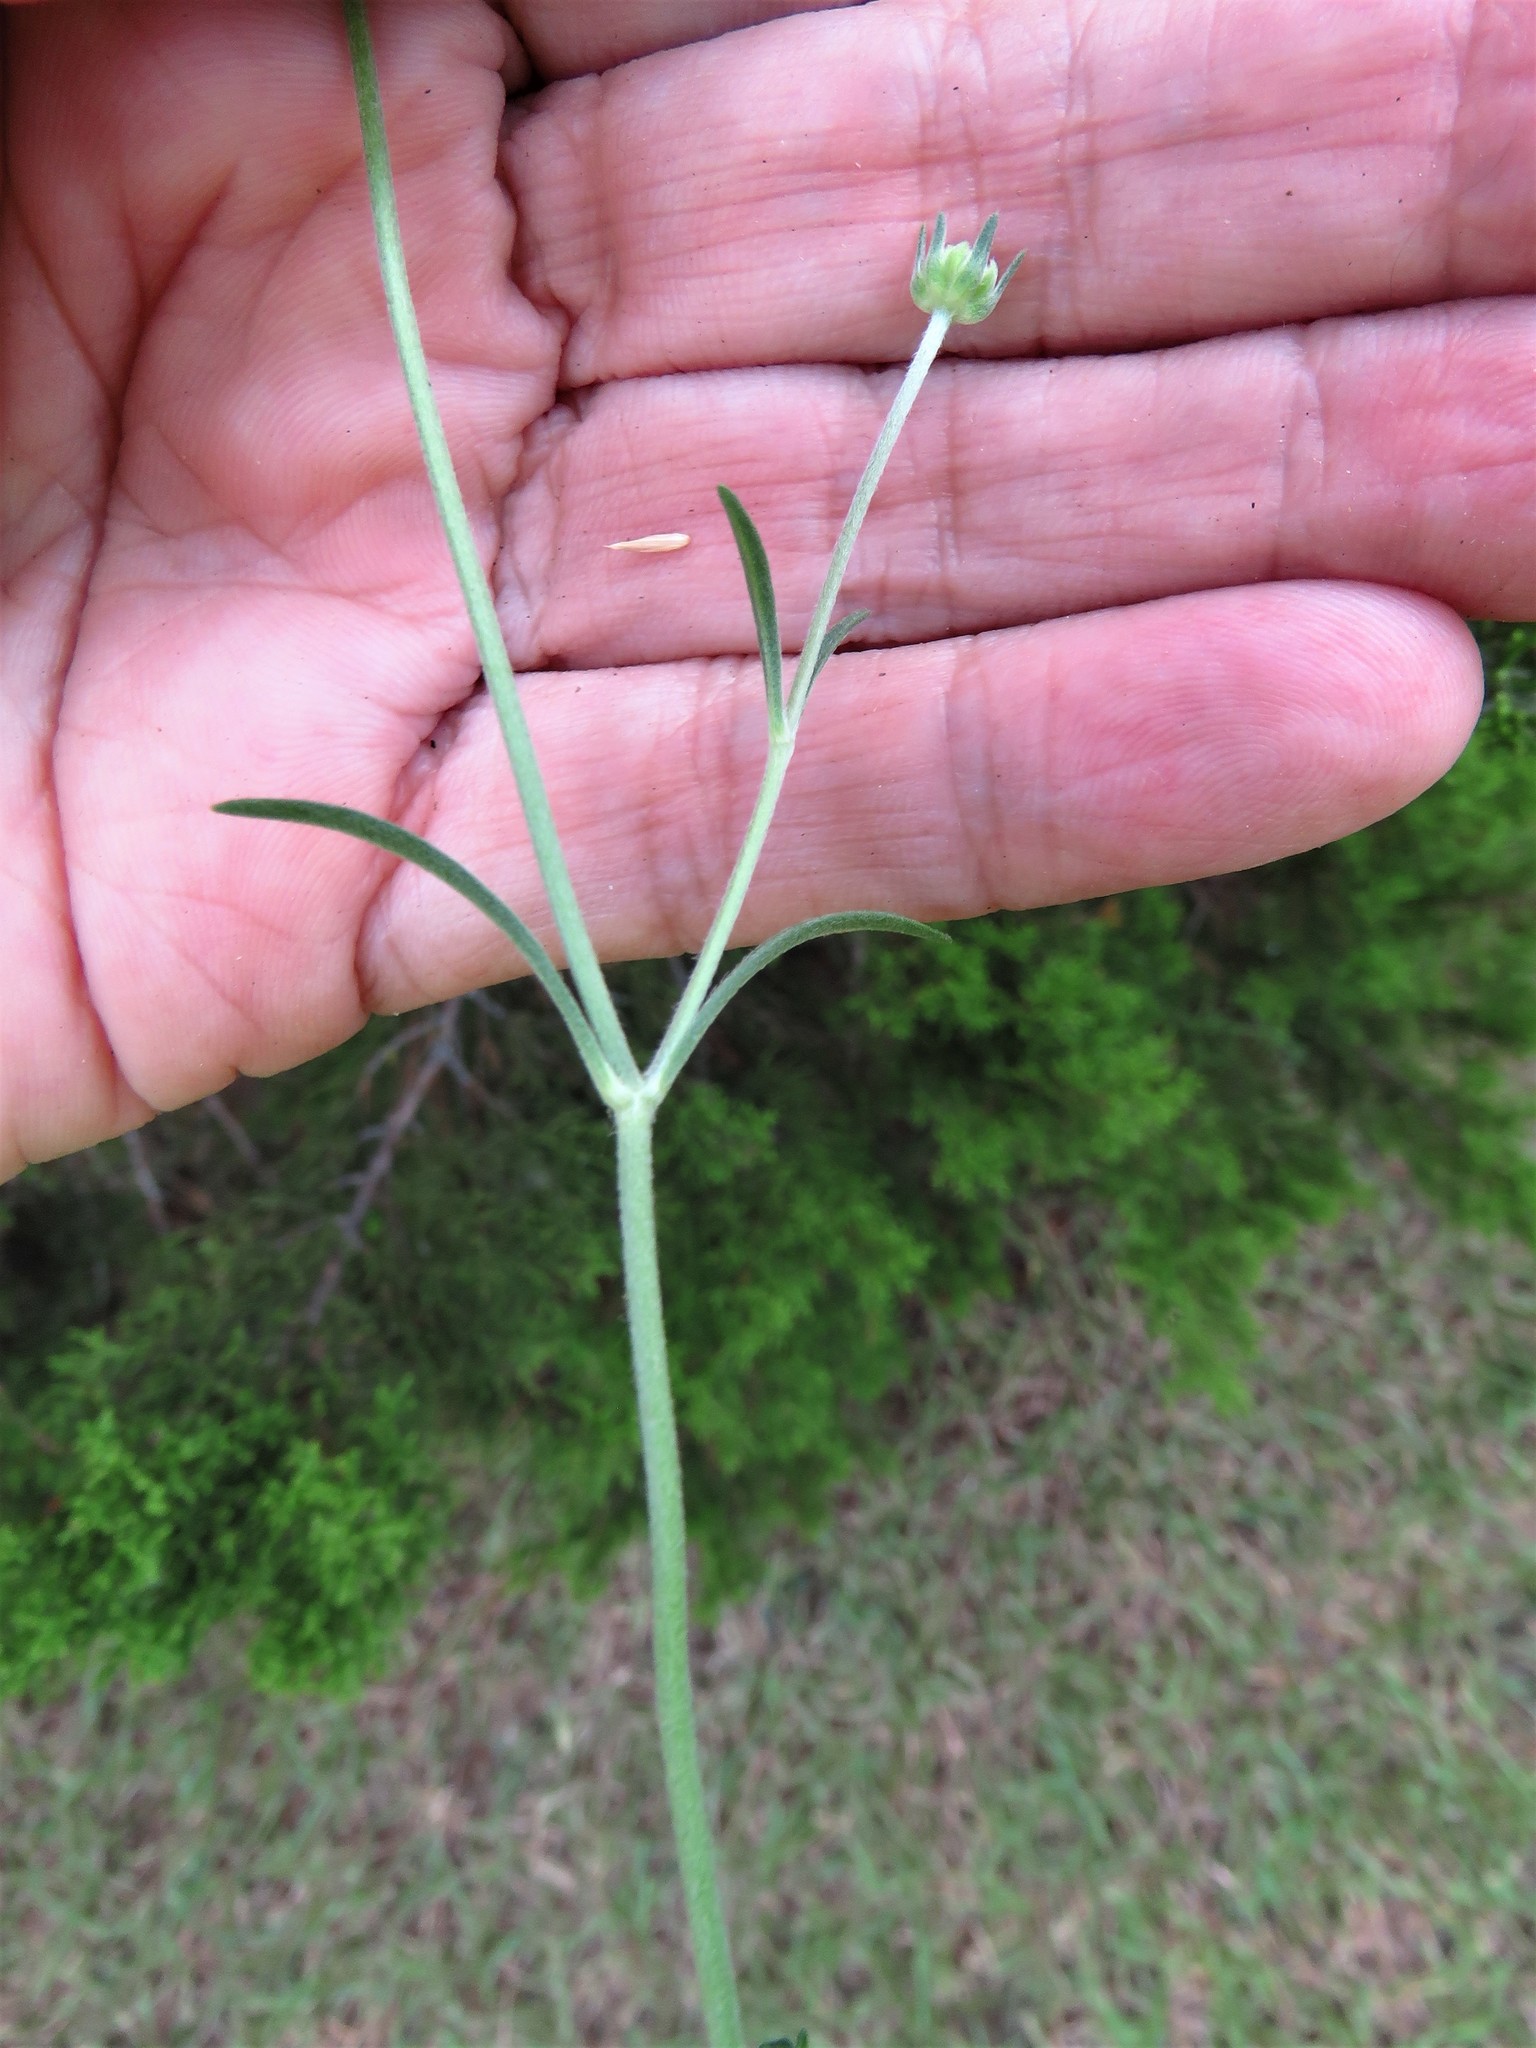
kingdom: Plantae
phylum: Tracheophyta
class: Magnoliopsida
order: Dipsacales
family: Caprifoliaceae
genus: Sixalix
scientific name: Sixalix atropurpurea
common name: Sweet scabious
